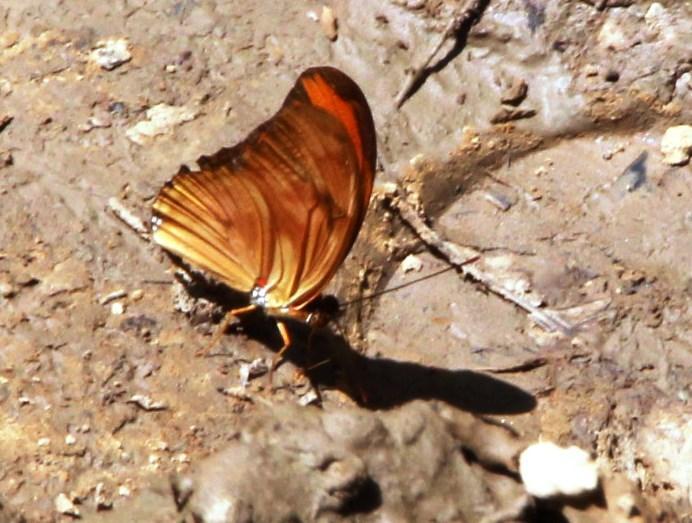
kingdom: Animalia
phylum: Arthropoda
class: Insecta
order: Lepidoptera
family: Nymphalidae
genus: Dryas
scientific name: Dryas iulia
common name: Flambeau
